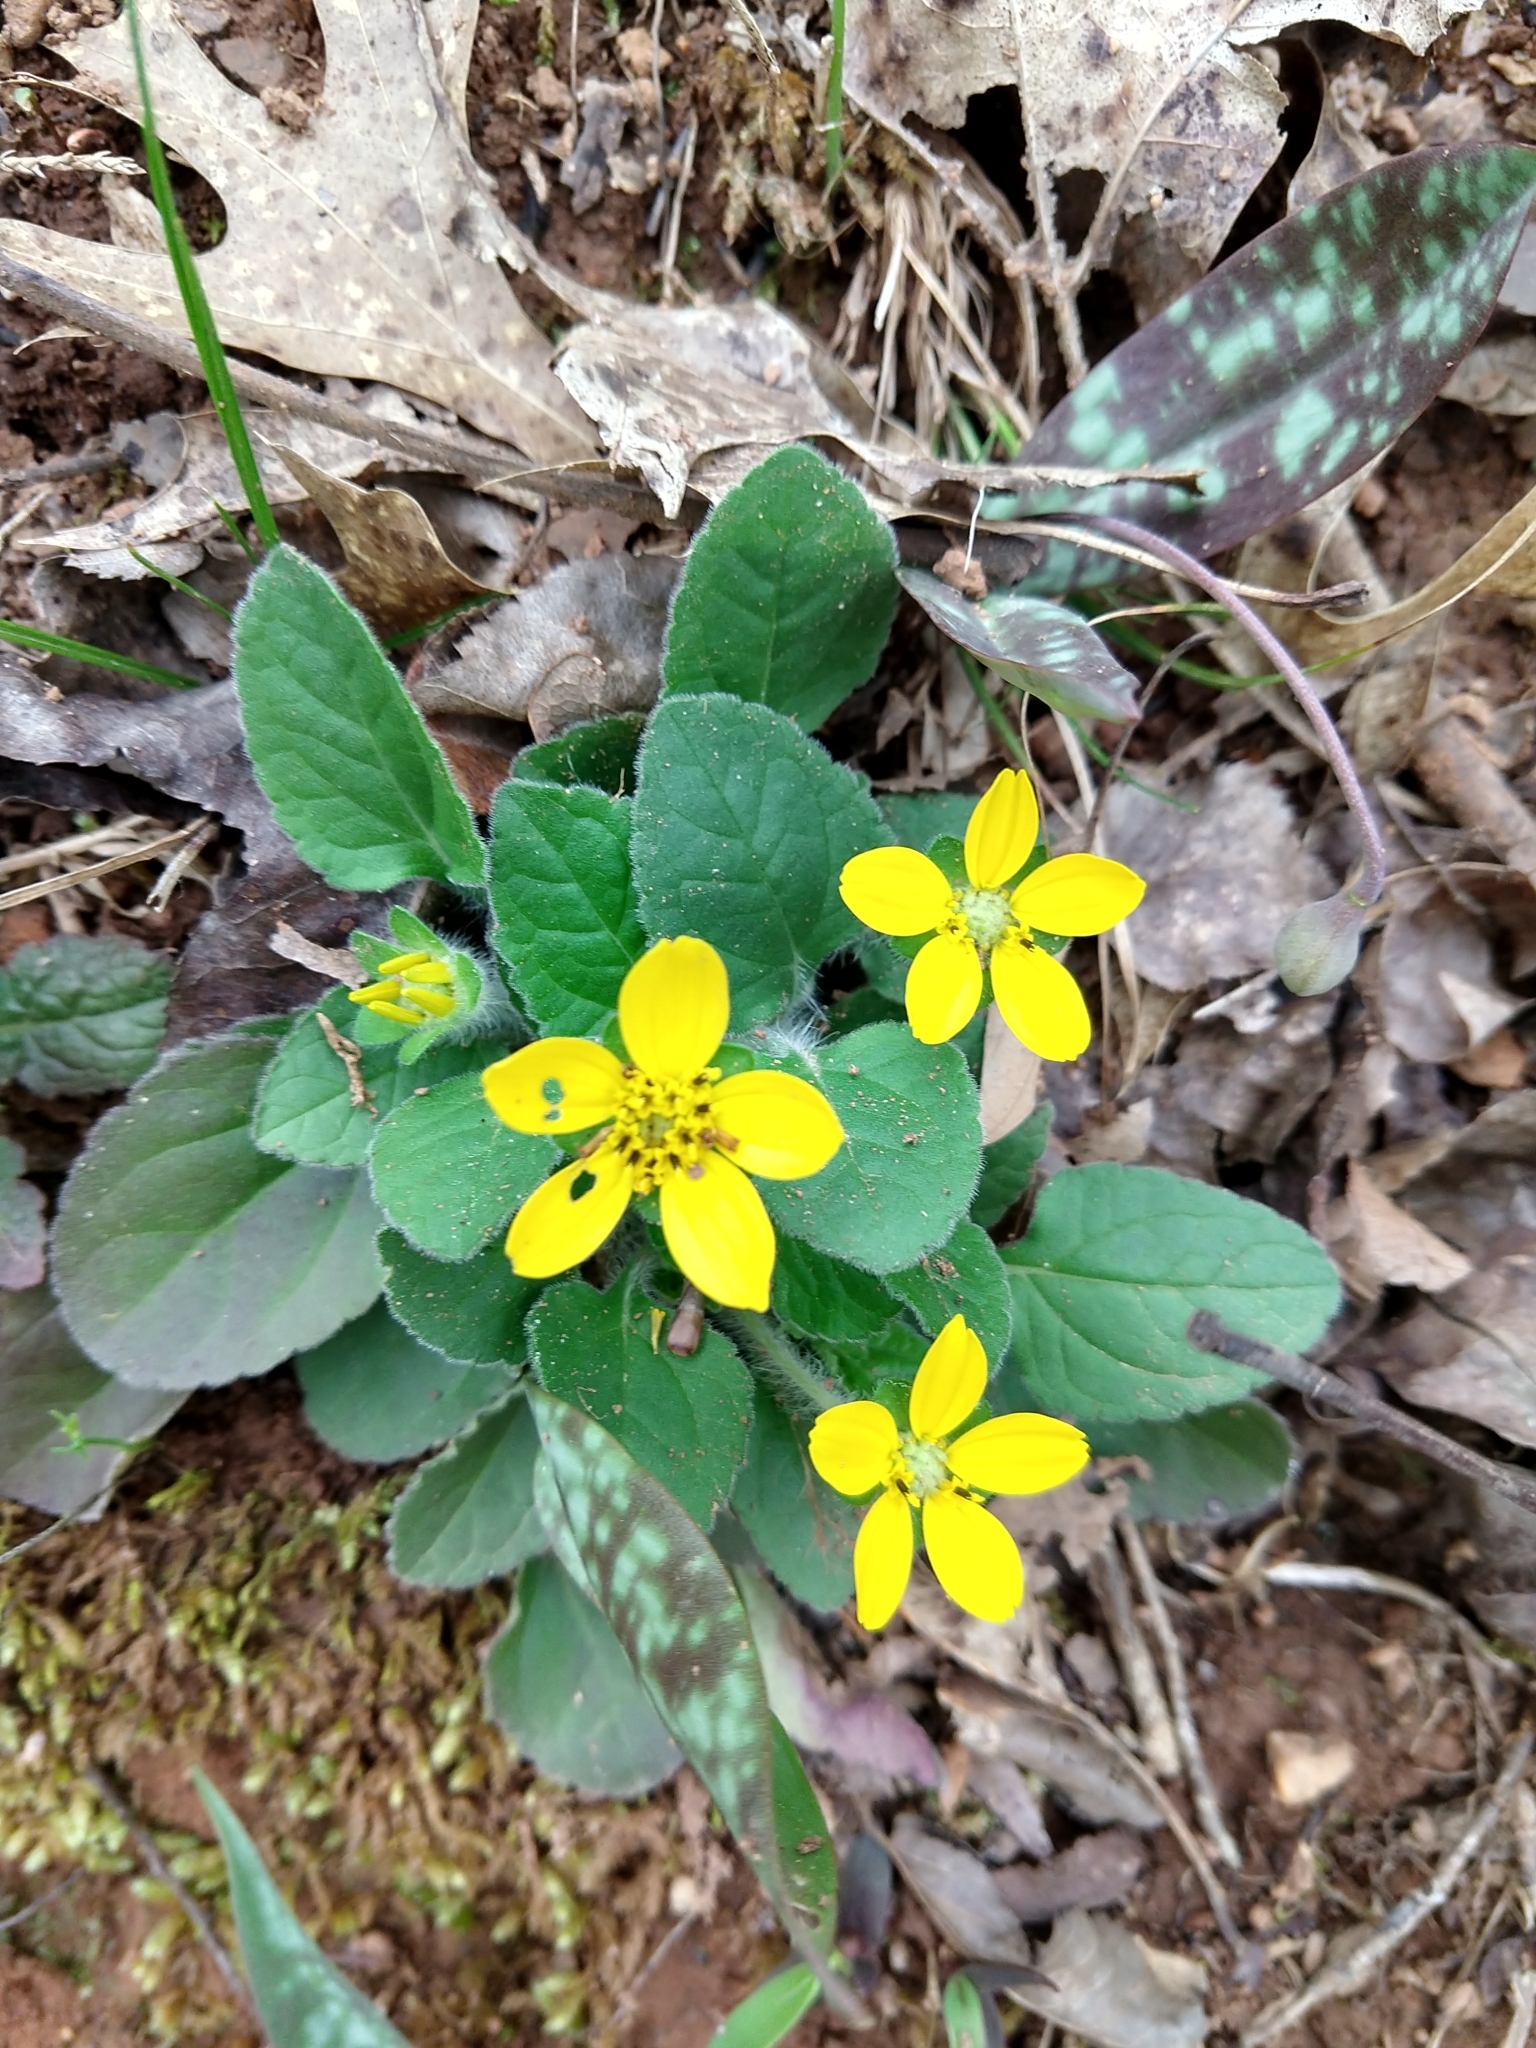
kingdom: Plantae
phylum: Tracheophyta
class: Magnoliopsida
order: Asterales
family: Asteraceae
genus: Chrysogonum
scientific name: Chrysogonum virginianum
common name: Golden-knee
